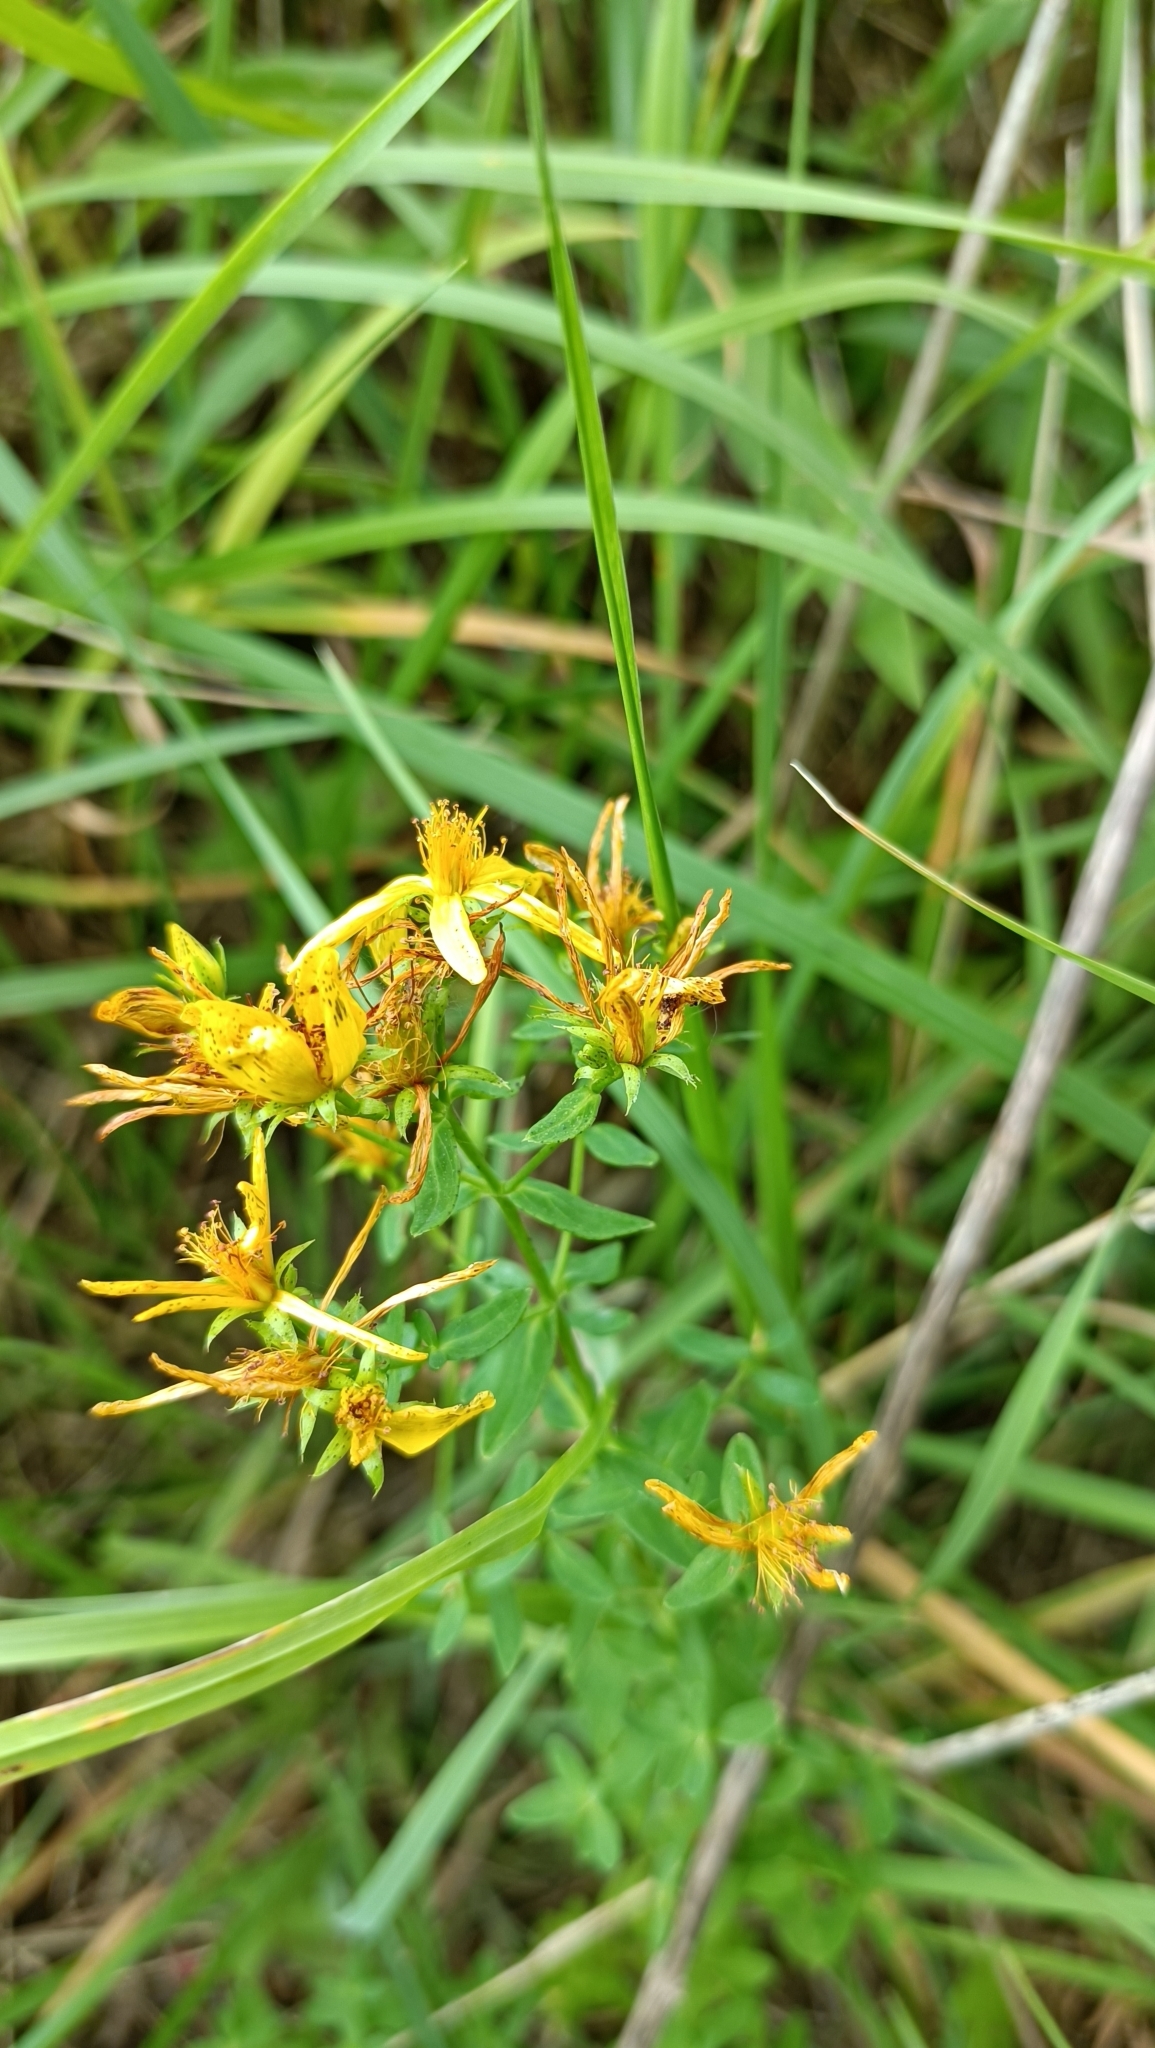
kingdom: Plantae
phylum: Tracheophyta
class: Magnoliopsida
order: Malpighiales
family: Hypericaceae
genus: Hypericum
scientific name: Hypericum perforatum
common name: Common st. johnswort
